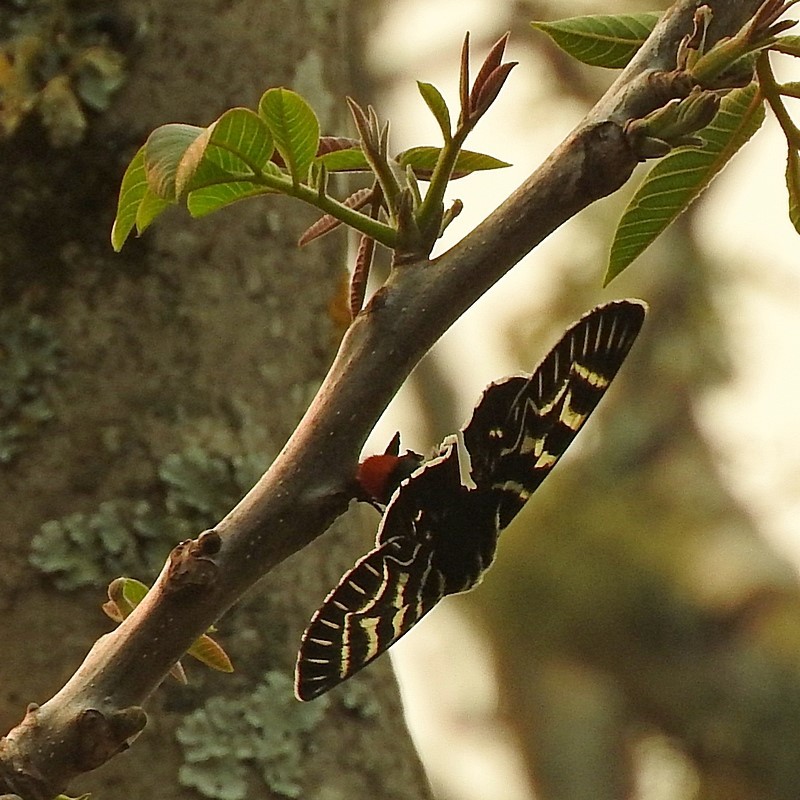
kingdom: Animalia
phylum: Arthropoda
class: Insecta
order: Lepidoptera
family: Noctuidae
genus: Comocrus
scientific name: Comocrus behri
